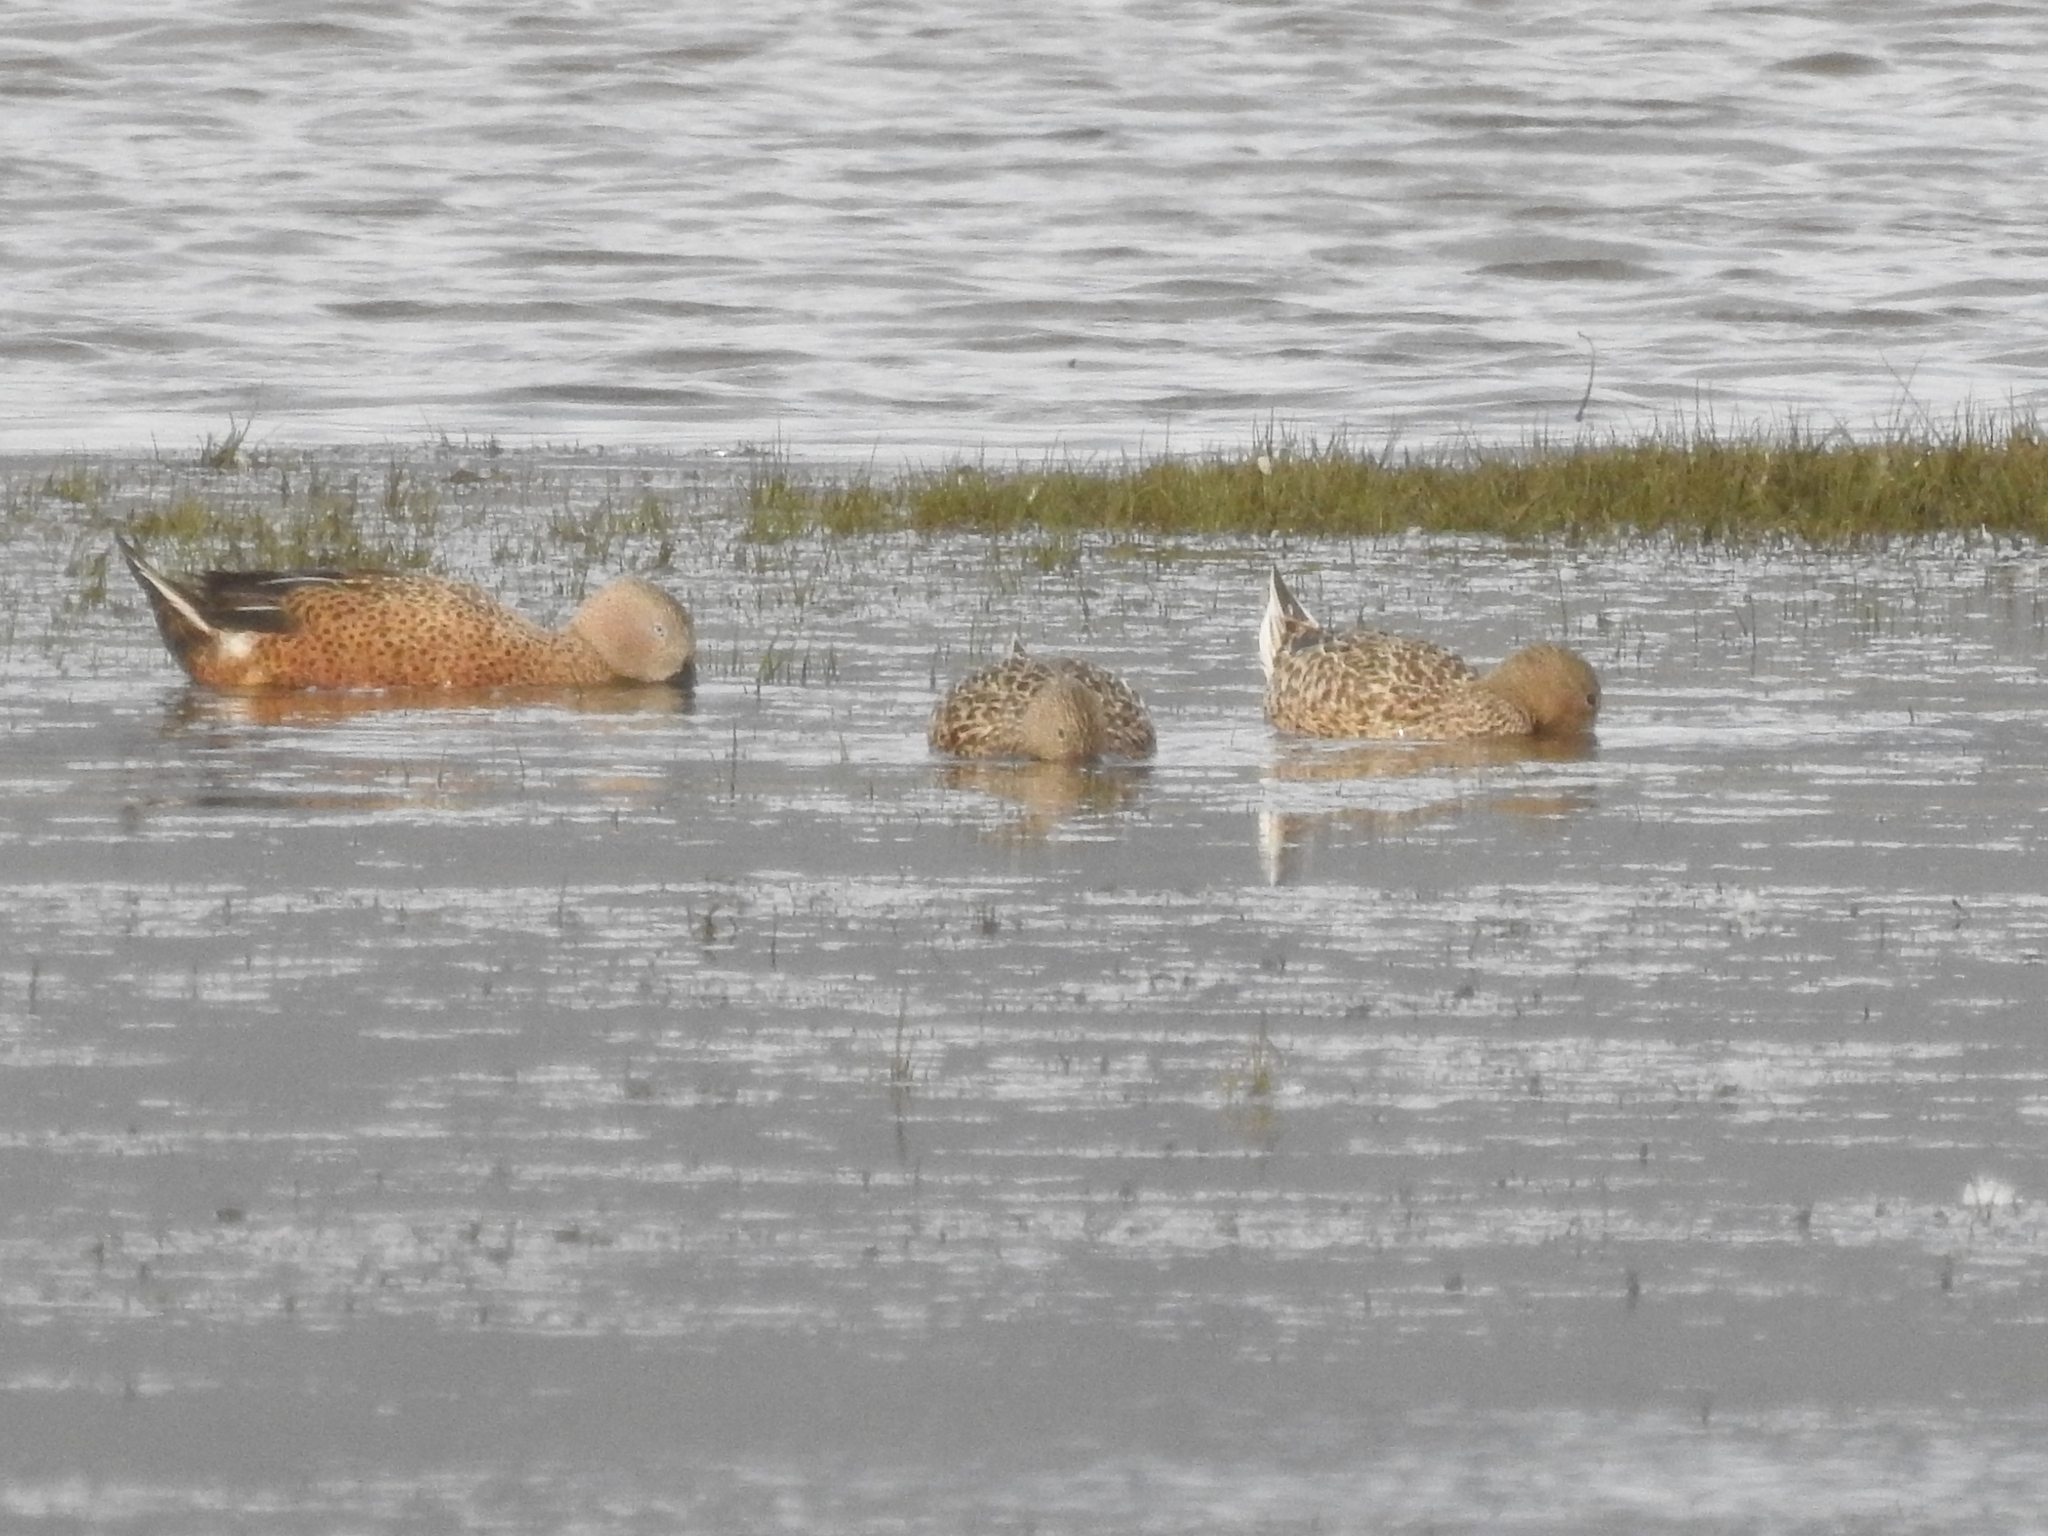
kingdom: Animalia
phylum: Chordata
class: Aves
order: Anseriformes
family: Anatidae
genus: Spatula
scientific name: Spatula platalea
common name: Red shoveler
